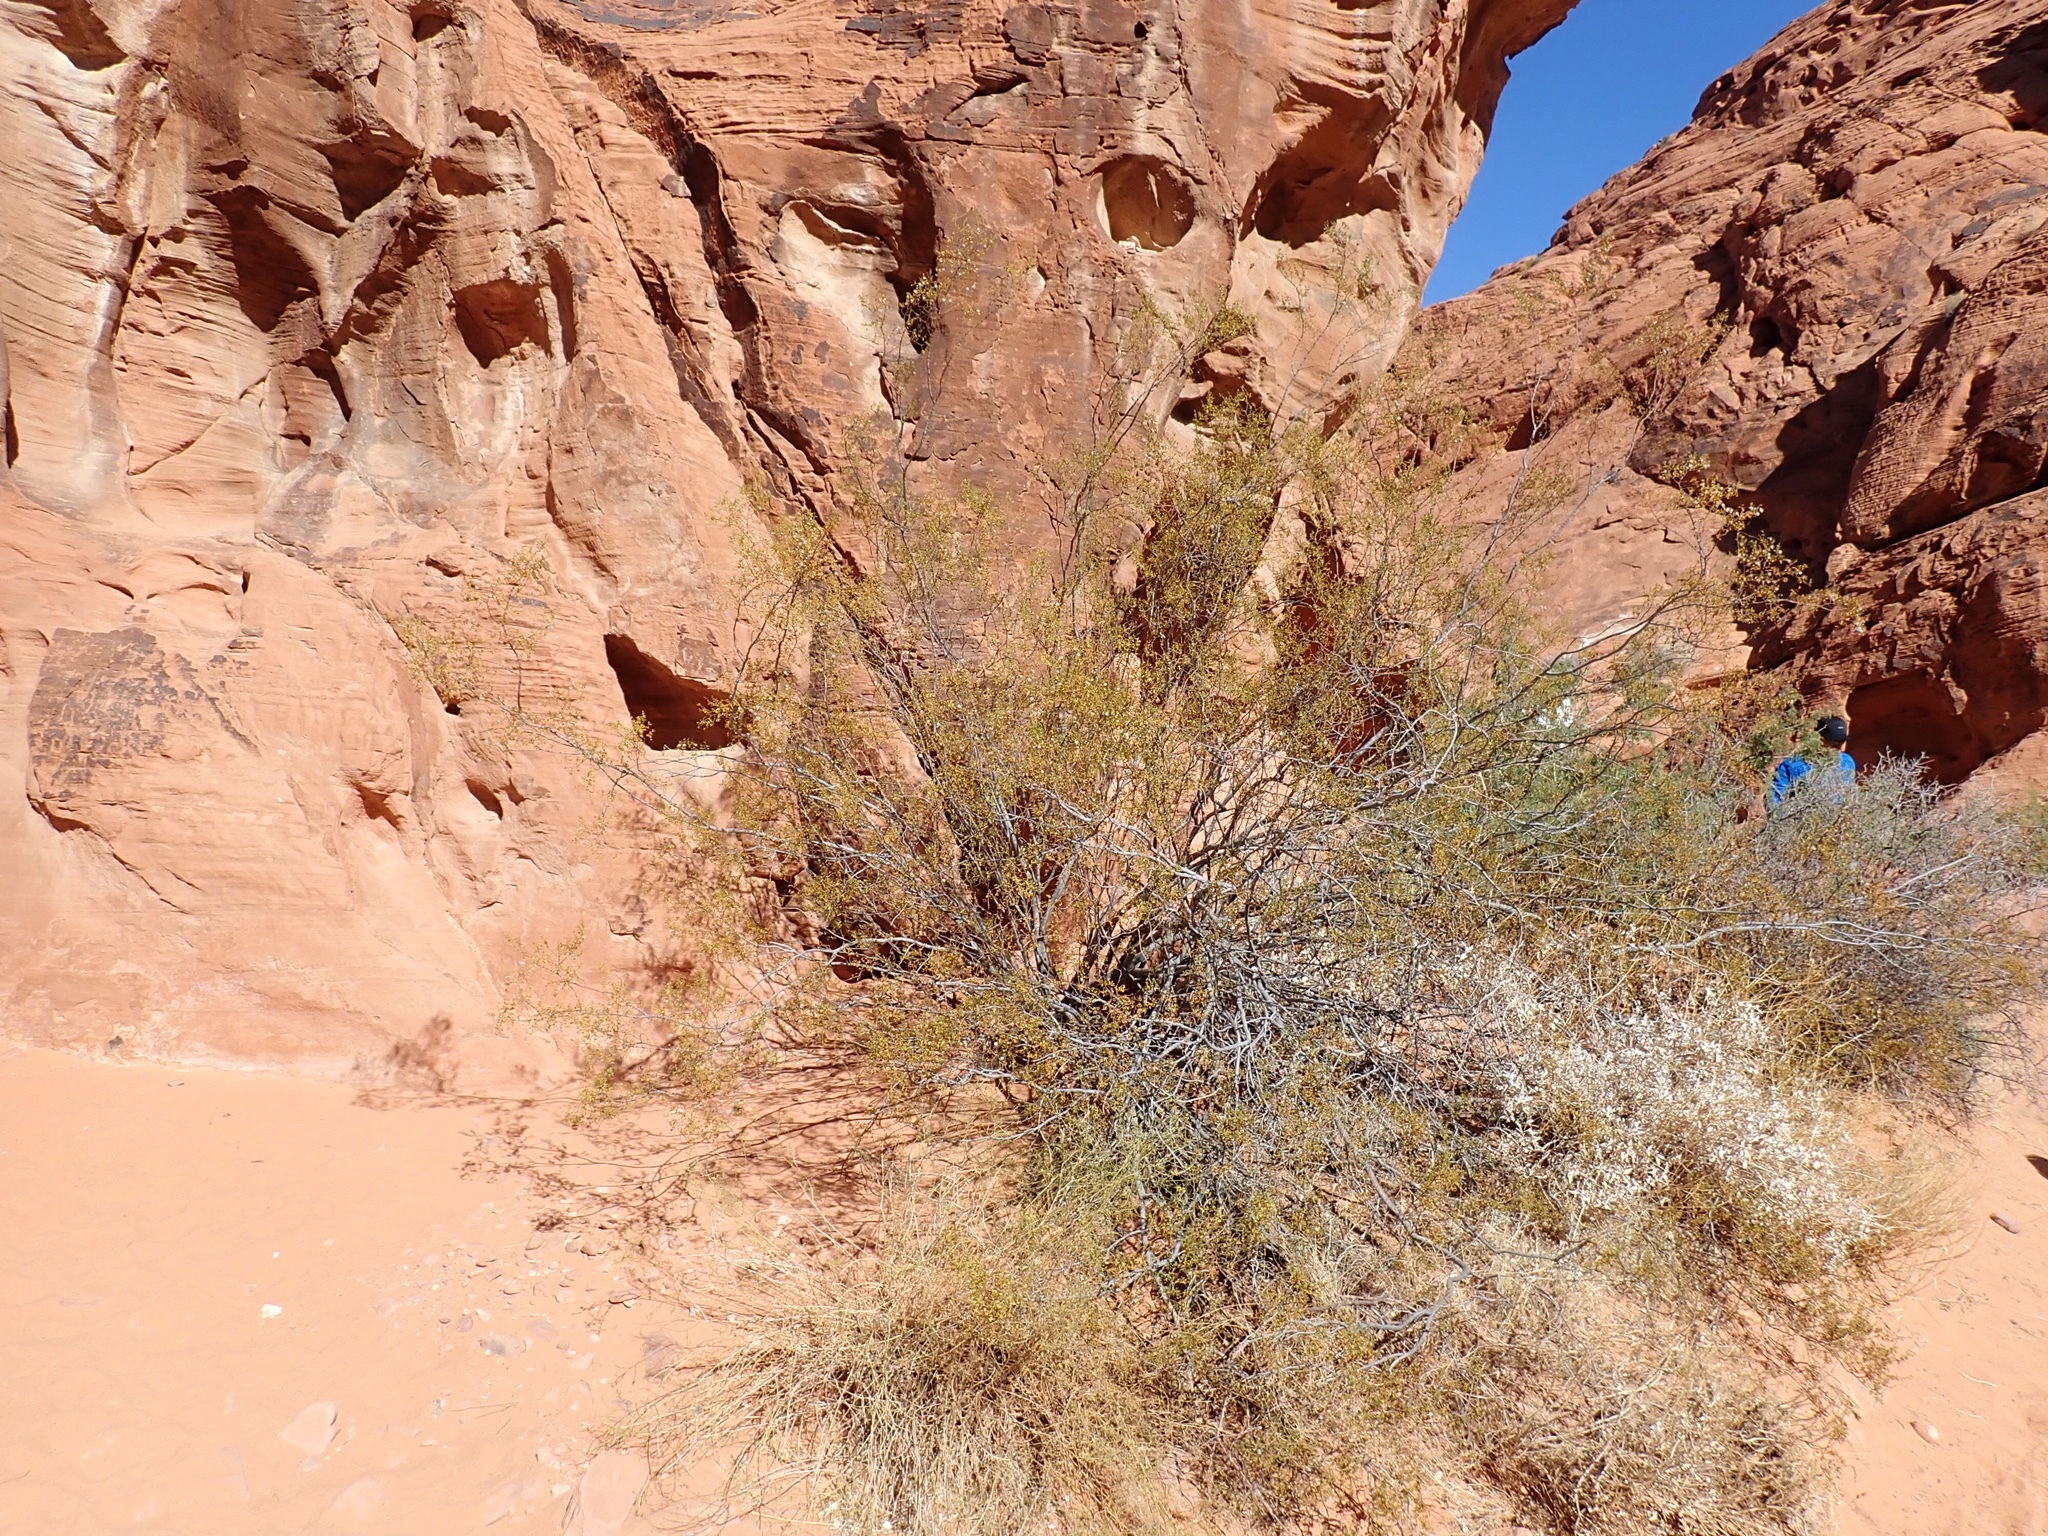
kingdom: Plantae
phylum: Tracheophyta
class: Magnoliopsida
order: Zygophyllales
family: Zygophyllaceae
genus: Larrea
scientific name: Larrea tridentata
